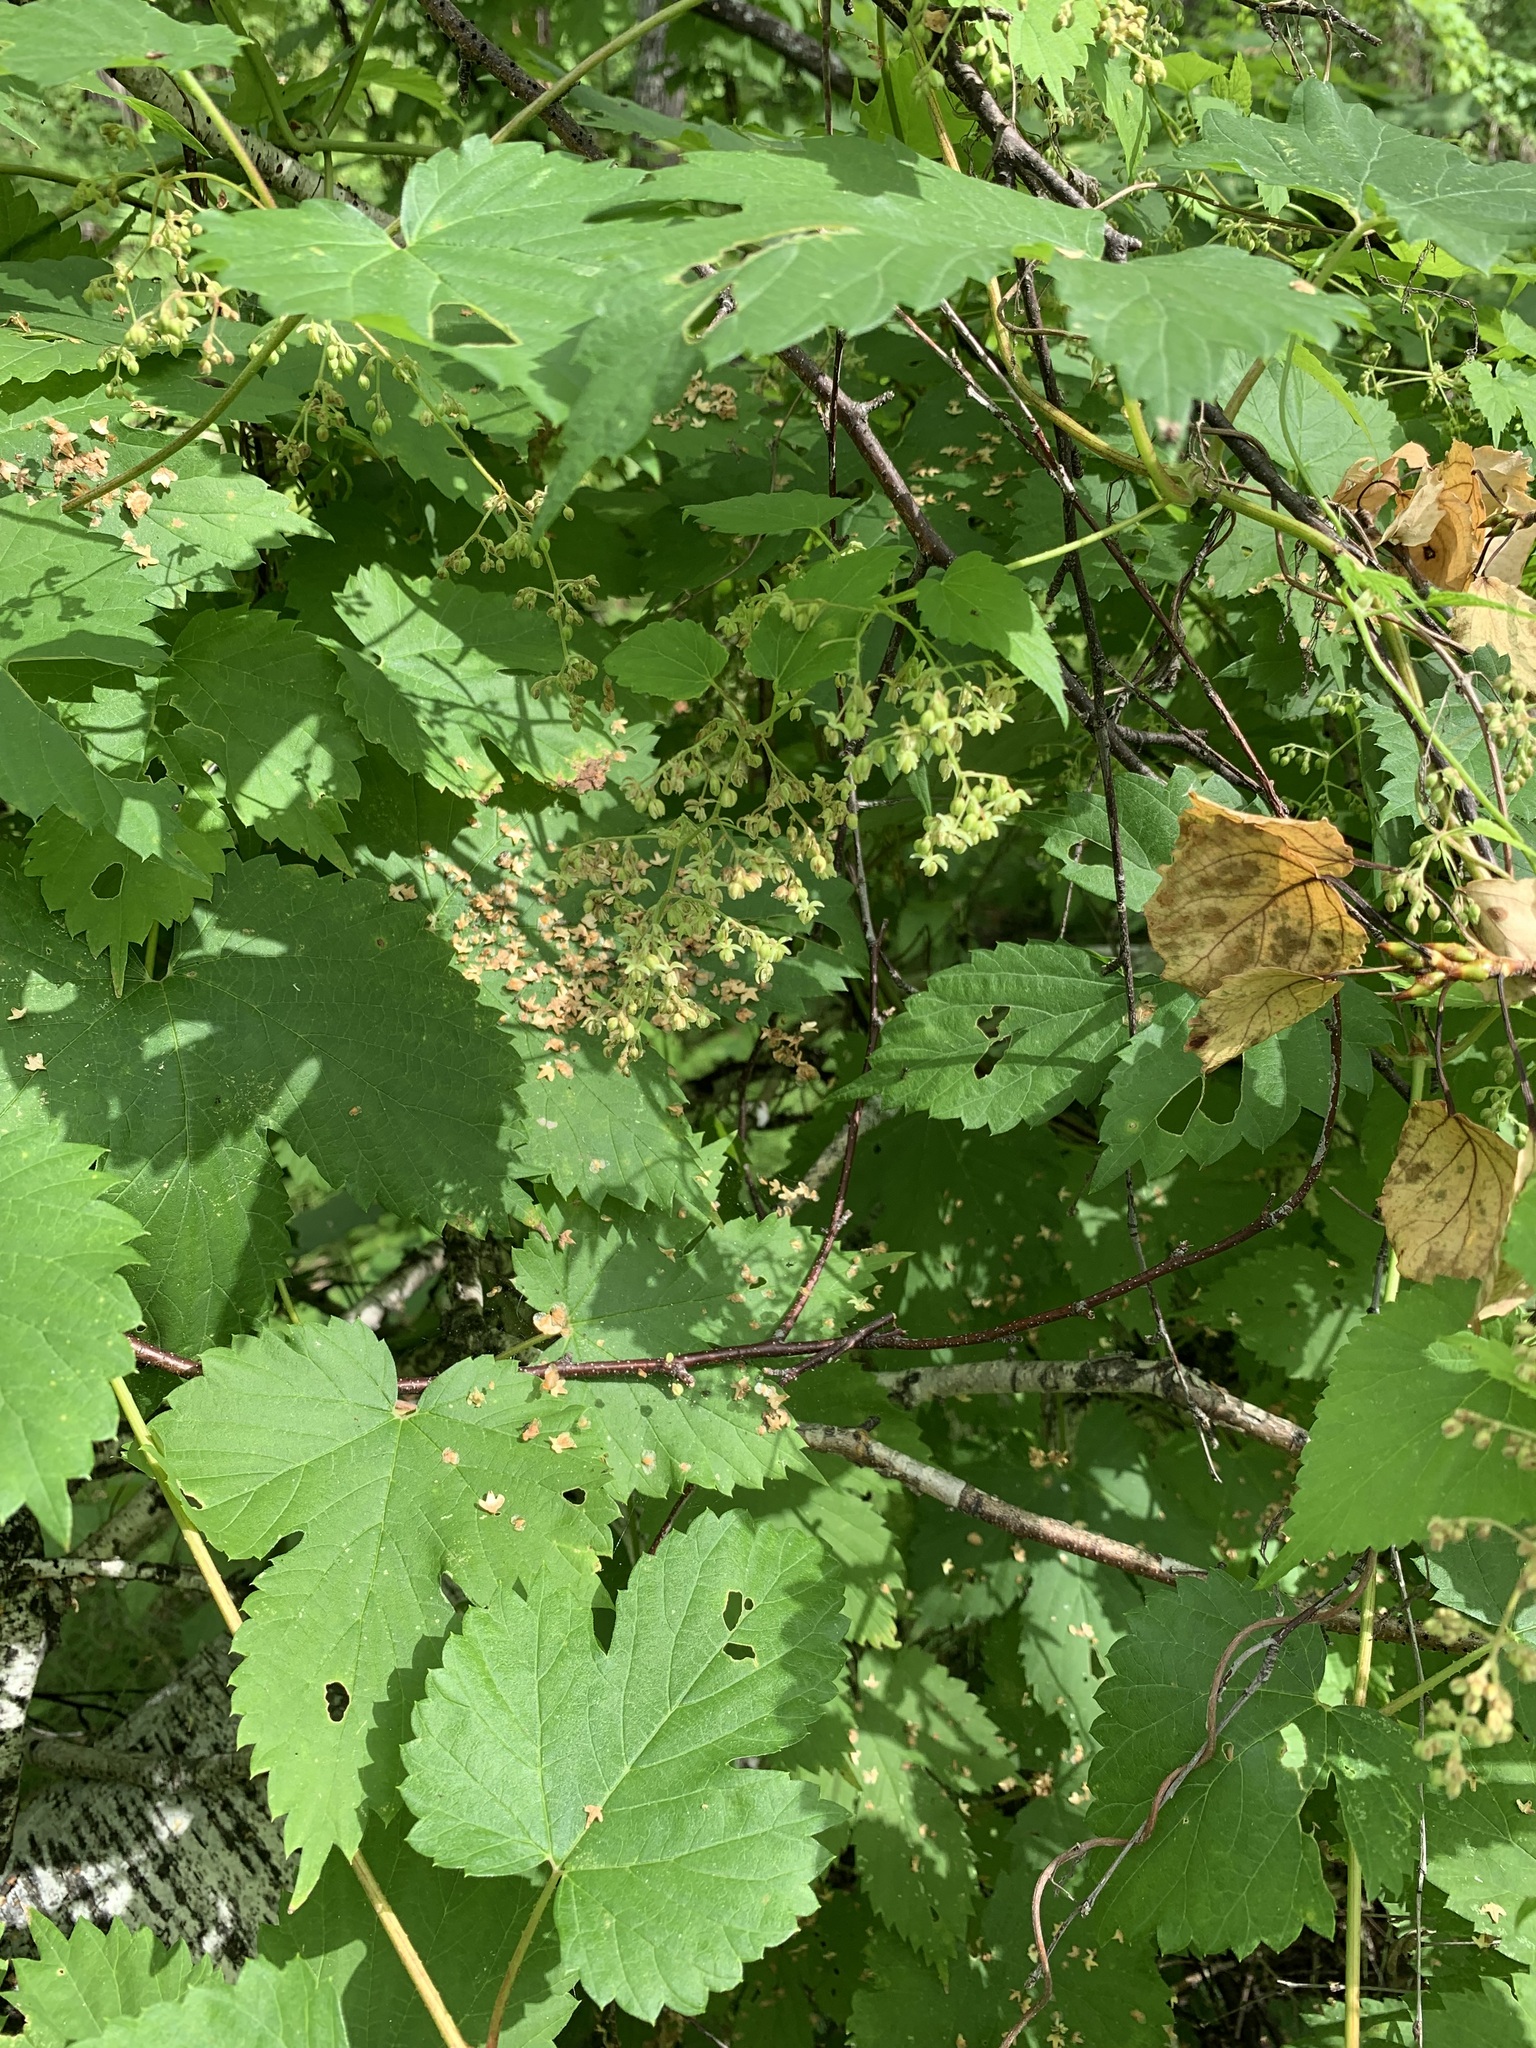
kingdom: Plantae
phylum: Tracheophyta
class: Magnoliopsida
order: Rosales
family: Cannabaceae
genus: Humulus
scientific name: Humulus lupulus
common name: Hop
